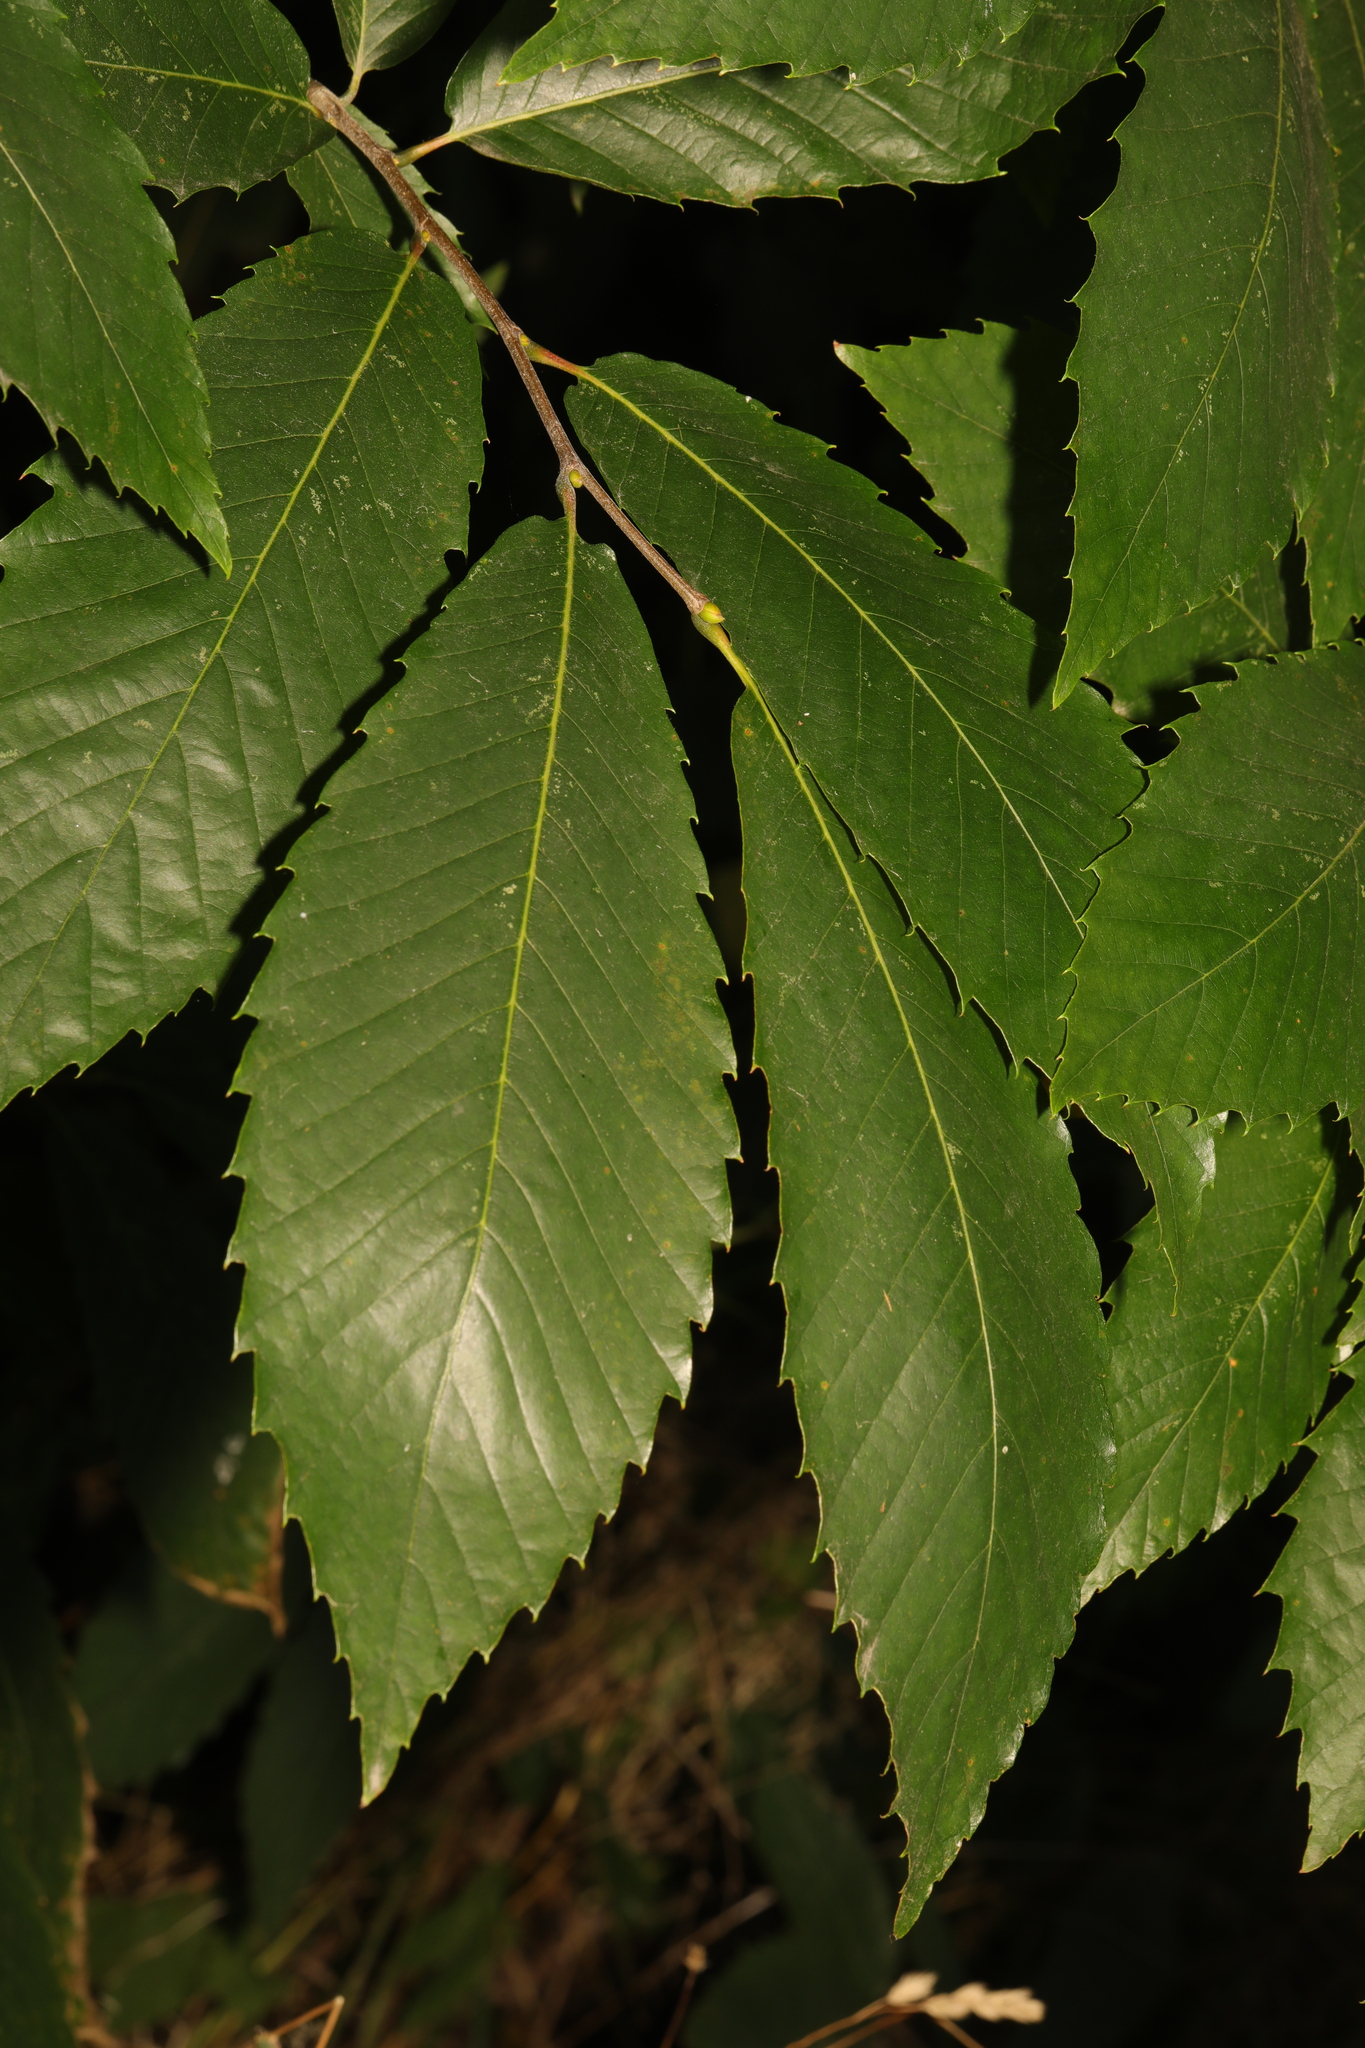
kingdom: Plantae
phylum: Tracheophyta
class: Magnoliopsida
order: Fagales
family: Fagaceae
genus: Castanea
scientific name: Castanea sativa
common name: Sweet chestnut
